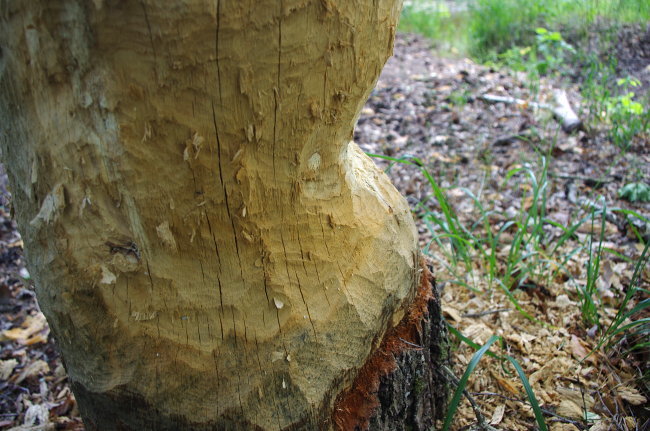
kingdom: Animalia
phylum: Chordata
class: Mammalia
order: Rodentia
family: Castoridae
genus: Castor
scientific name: Castor fiber
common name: Eurasian beaver
